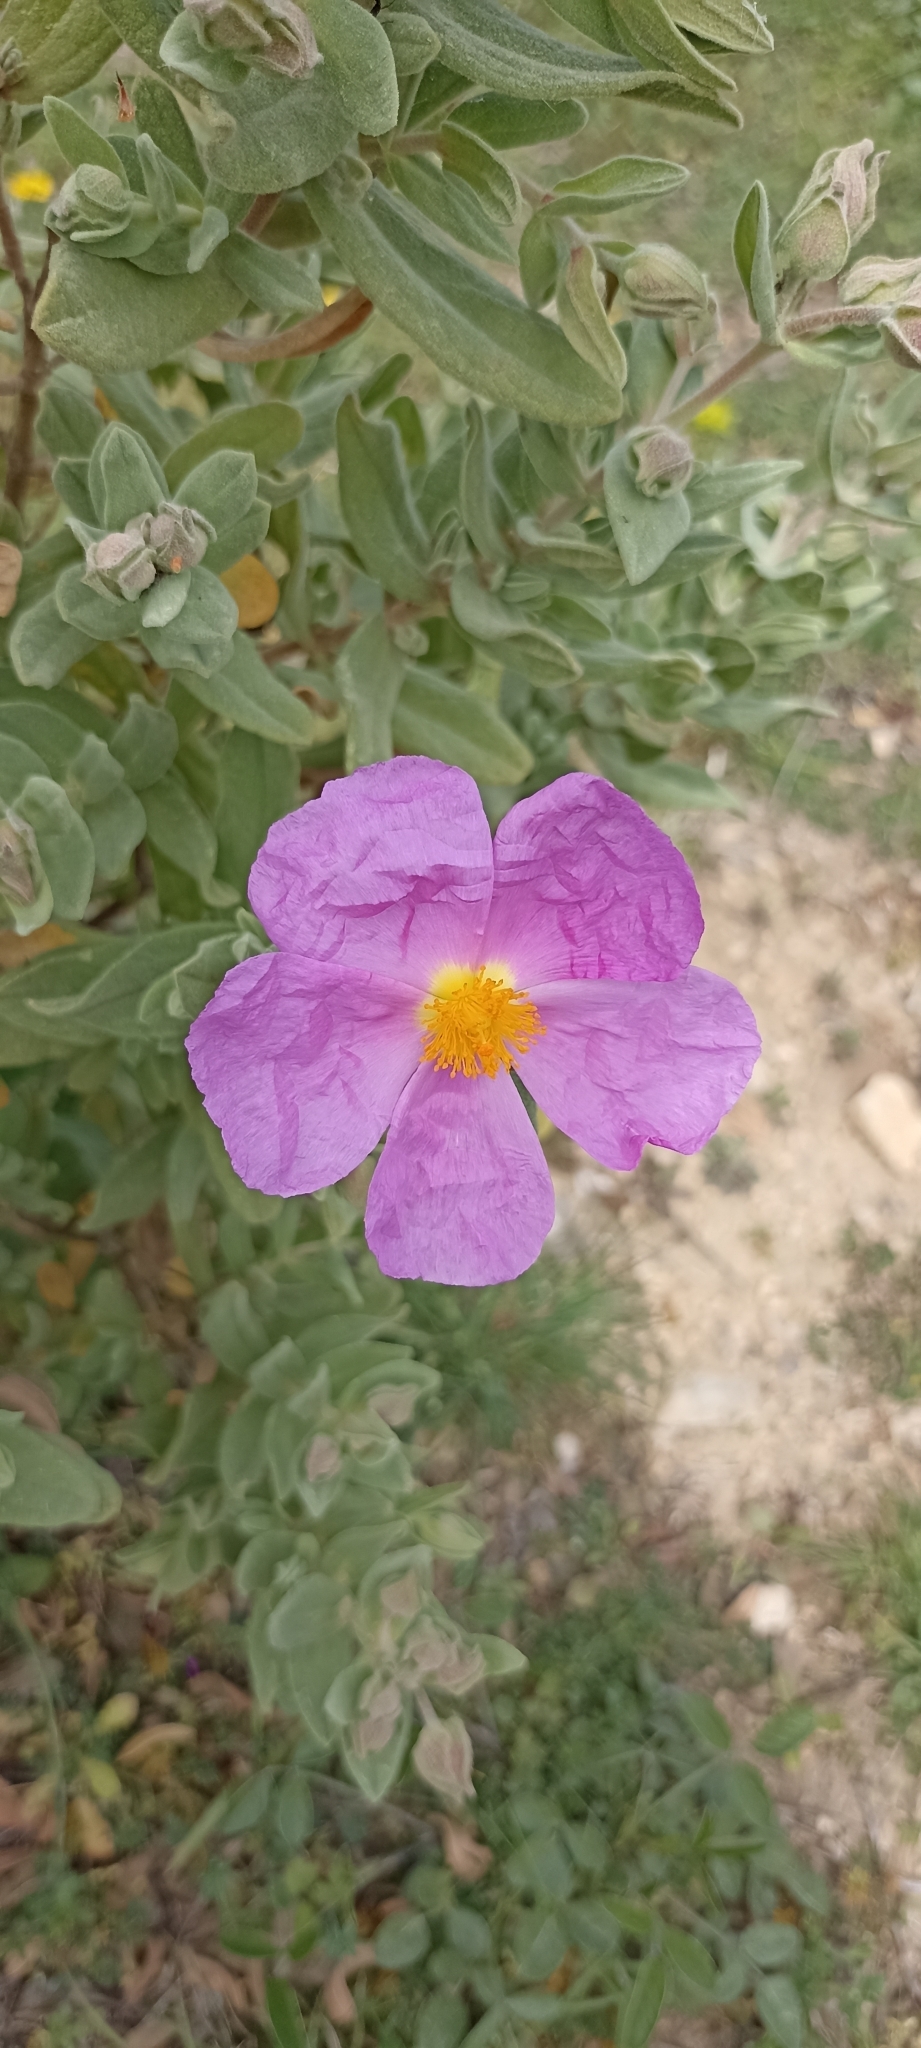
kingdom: Plantae
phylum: Tracheophyta
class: Magnoliopsida
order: Malvales
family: Cistaceae
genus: Cistus
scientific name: Cistus albidus
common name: White-leaf rock-rose
